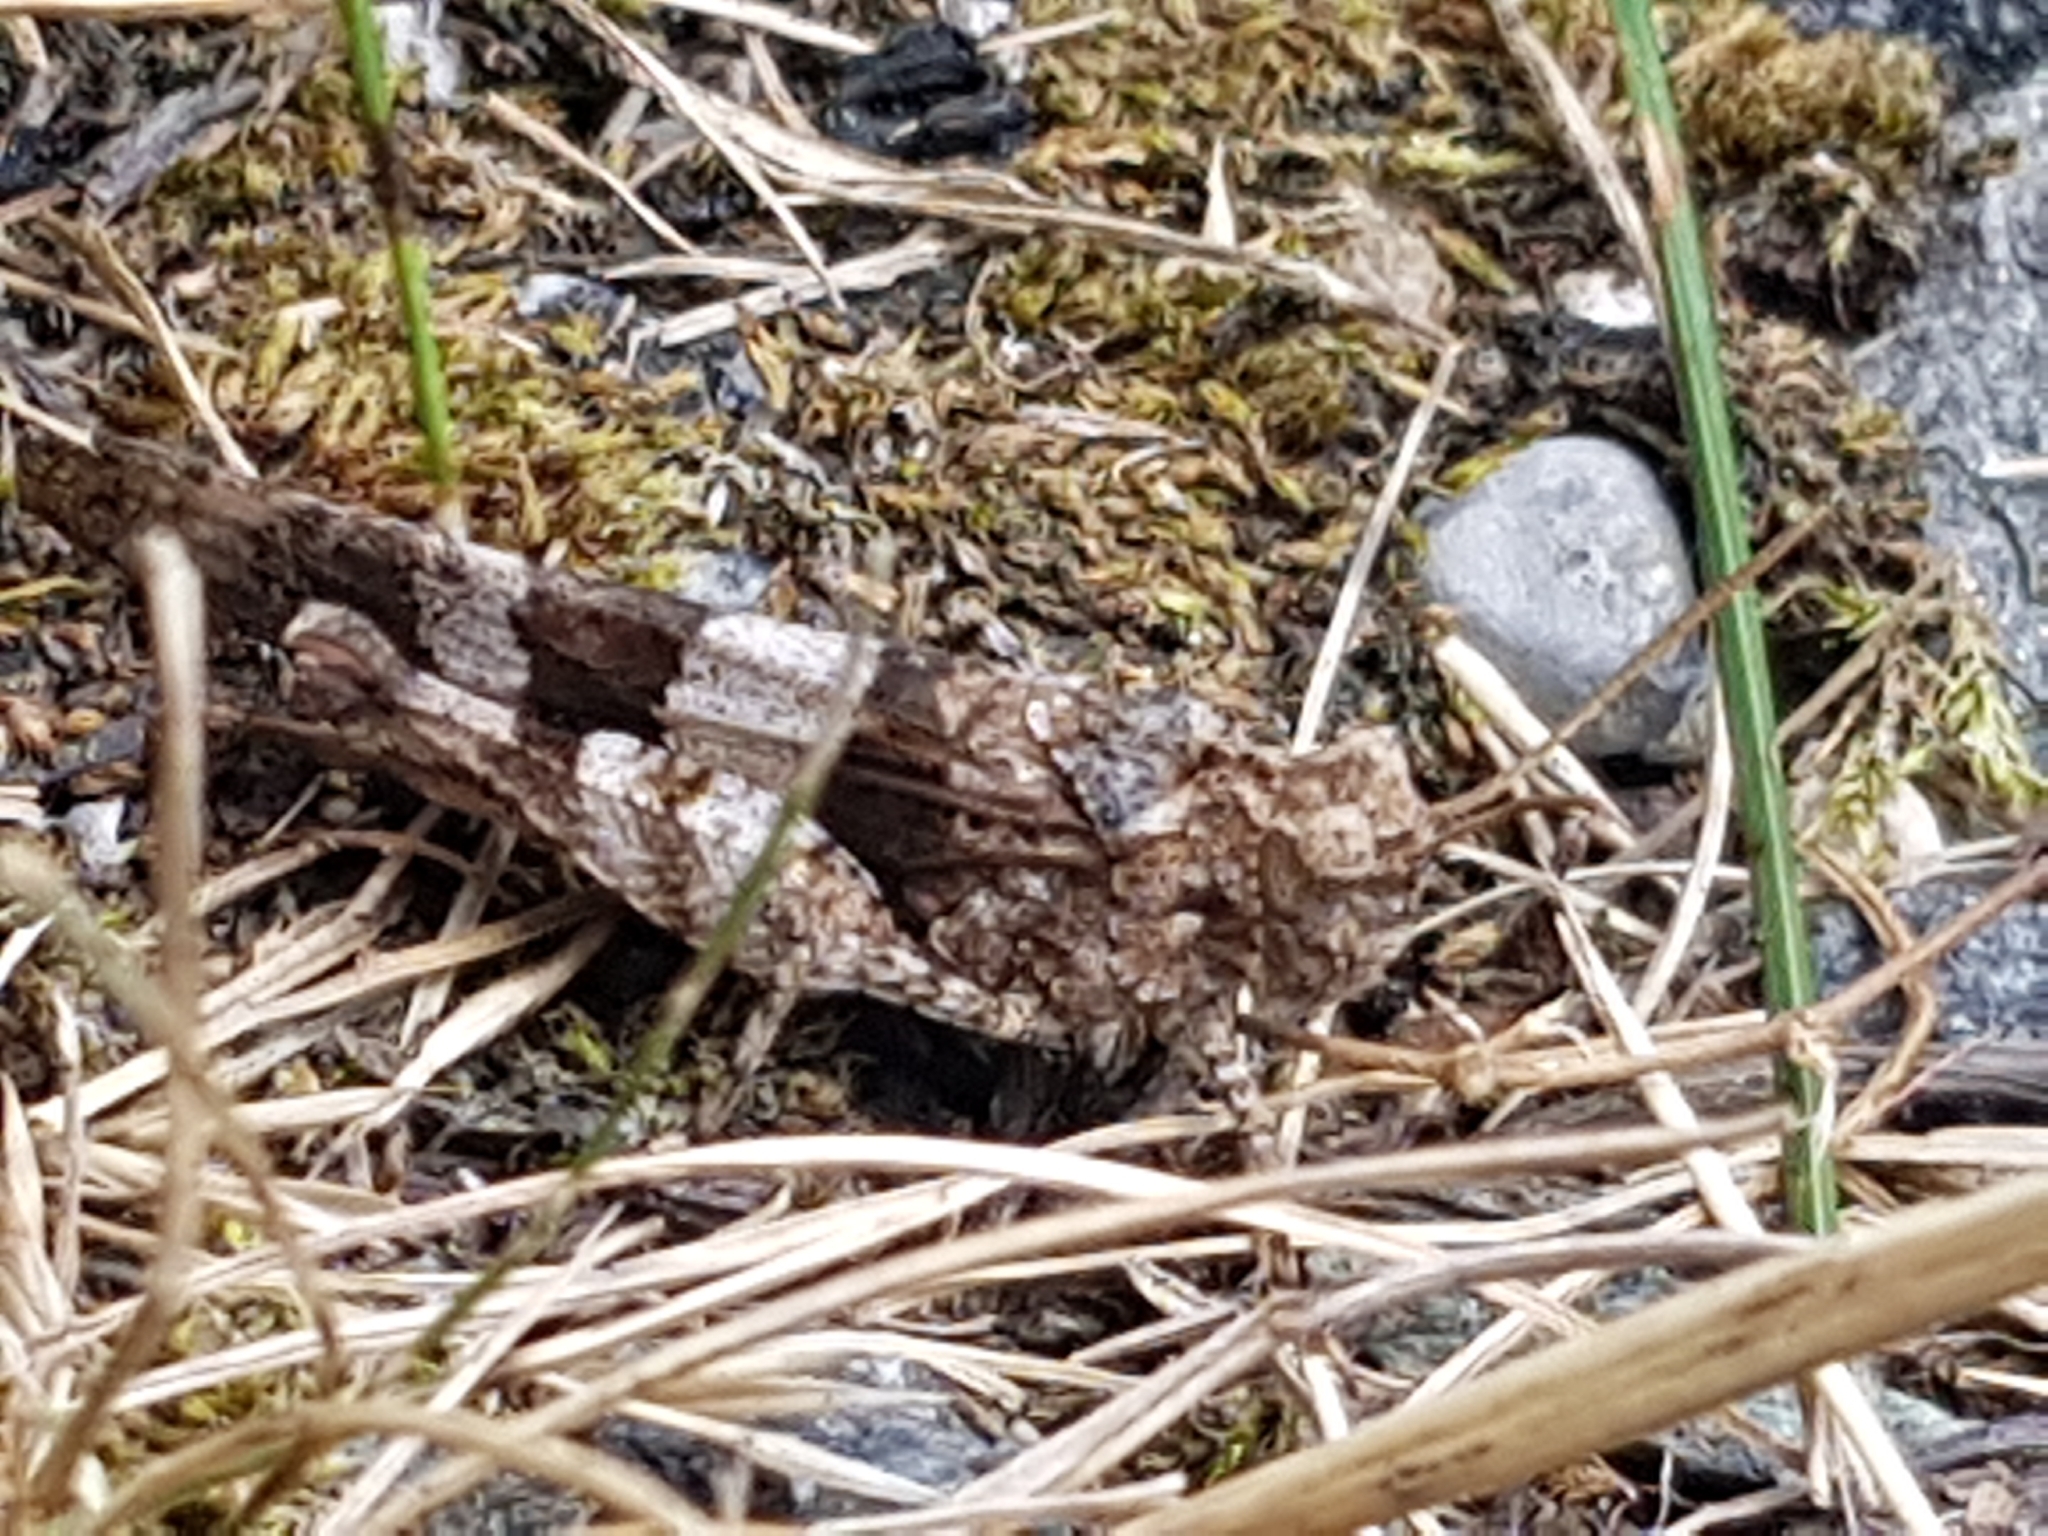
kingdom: Animalia
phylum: Arthropoda
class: Insecta
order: Orthoptera
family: Acrididae
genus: Oedipoda
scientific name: Oedipoda caerulescens
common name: Blue-winged grasshopper
